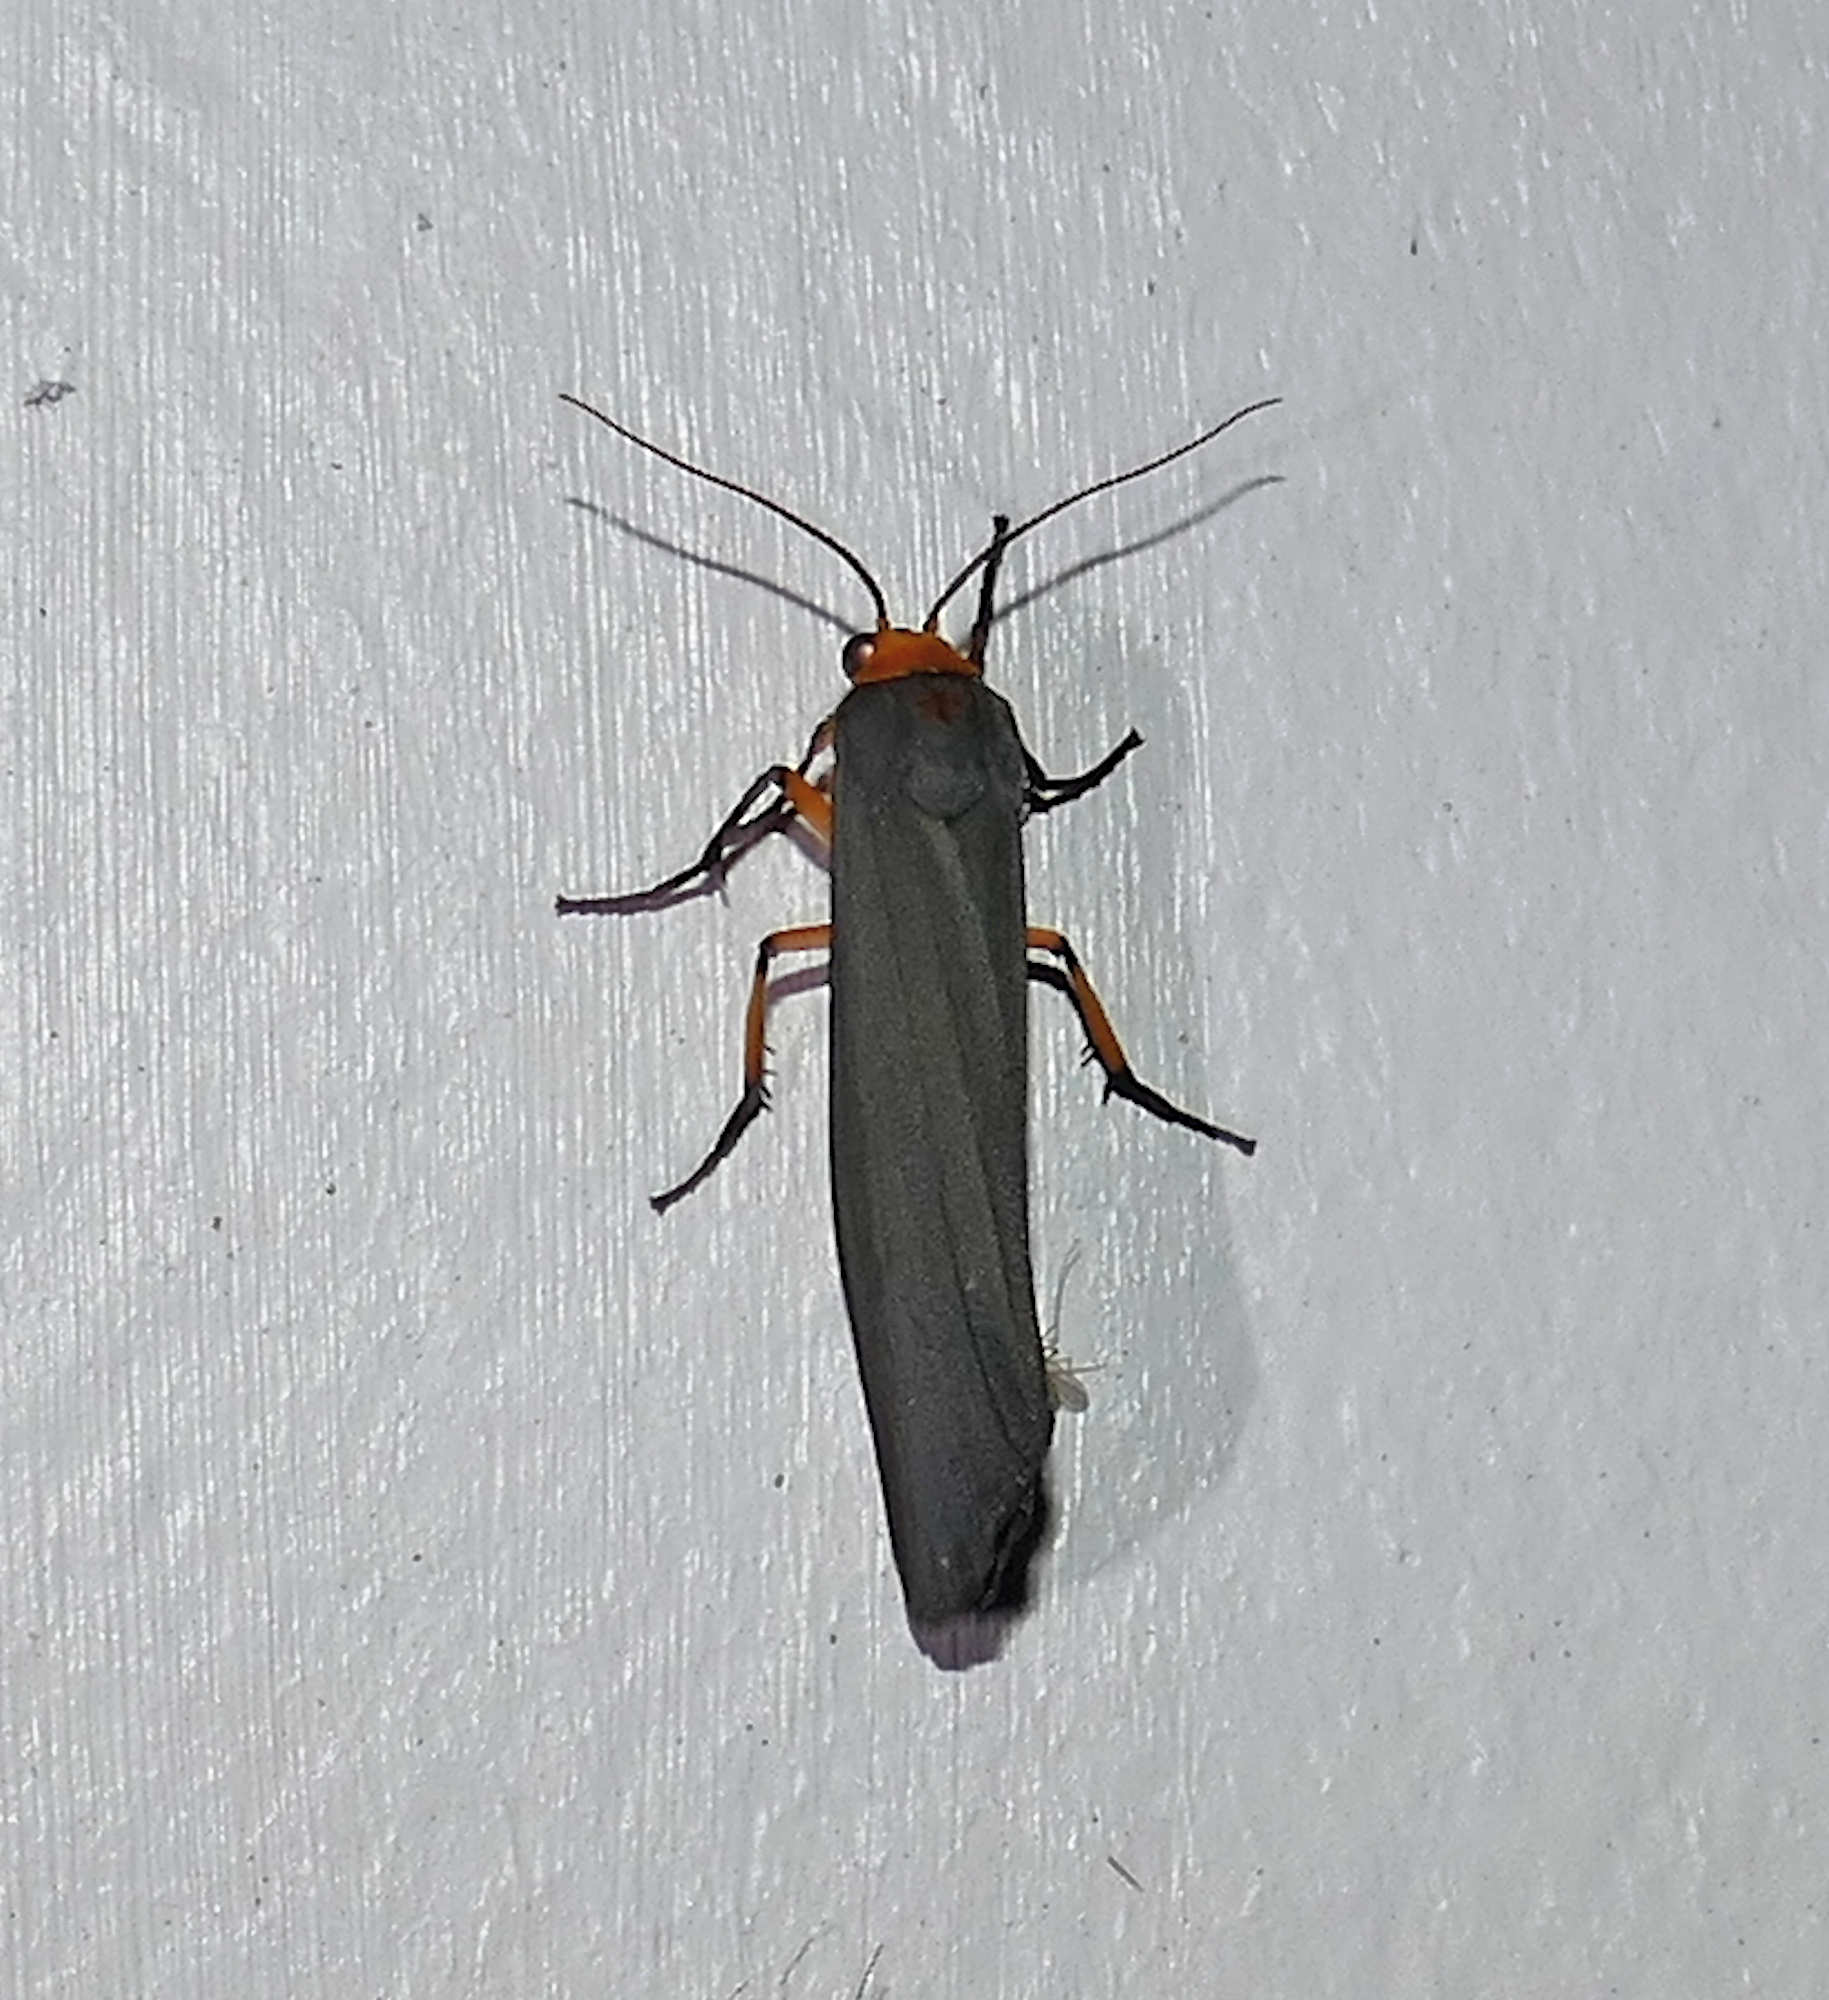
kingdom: Animalia
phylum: Arthropoda
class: Insecta
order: Lepidoptera
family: Erebidae
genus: Gnamptonychia
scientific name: Gnamptonychia ventralis
